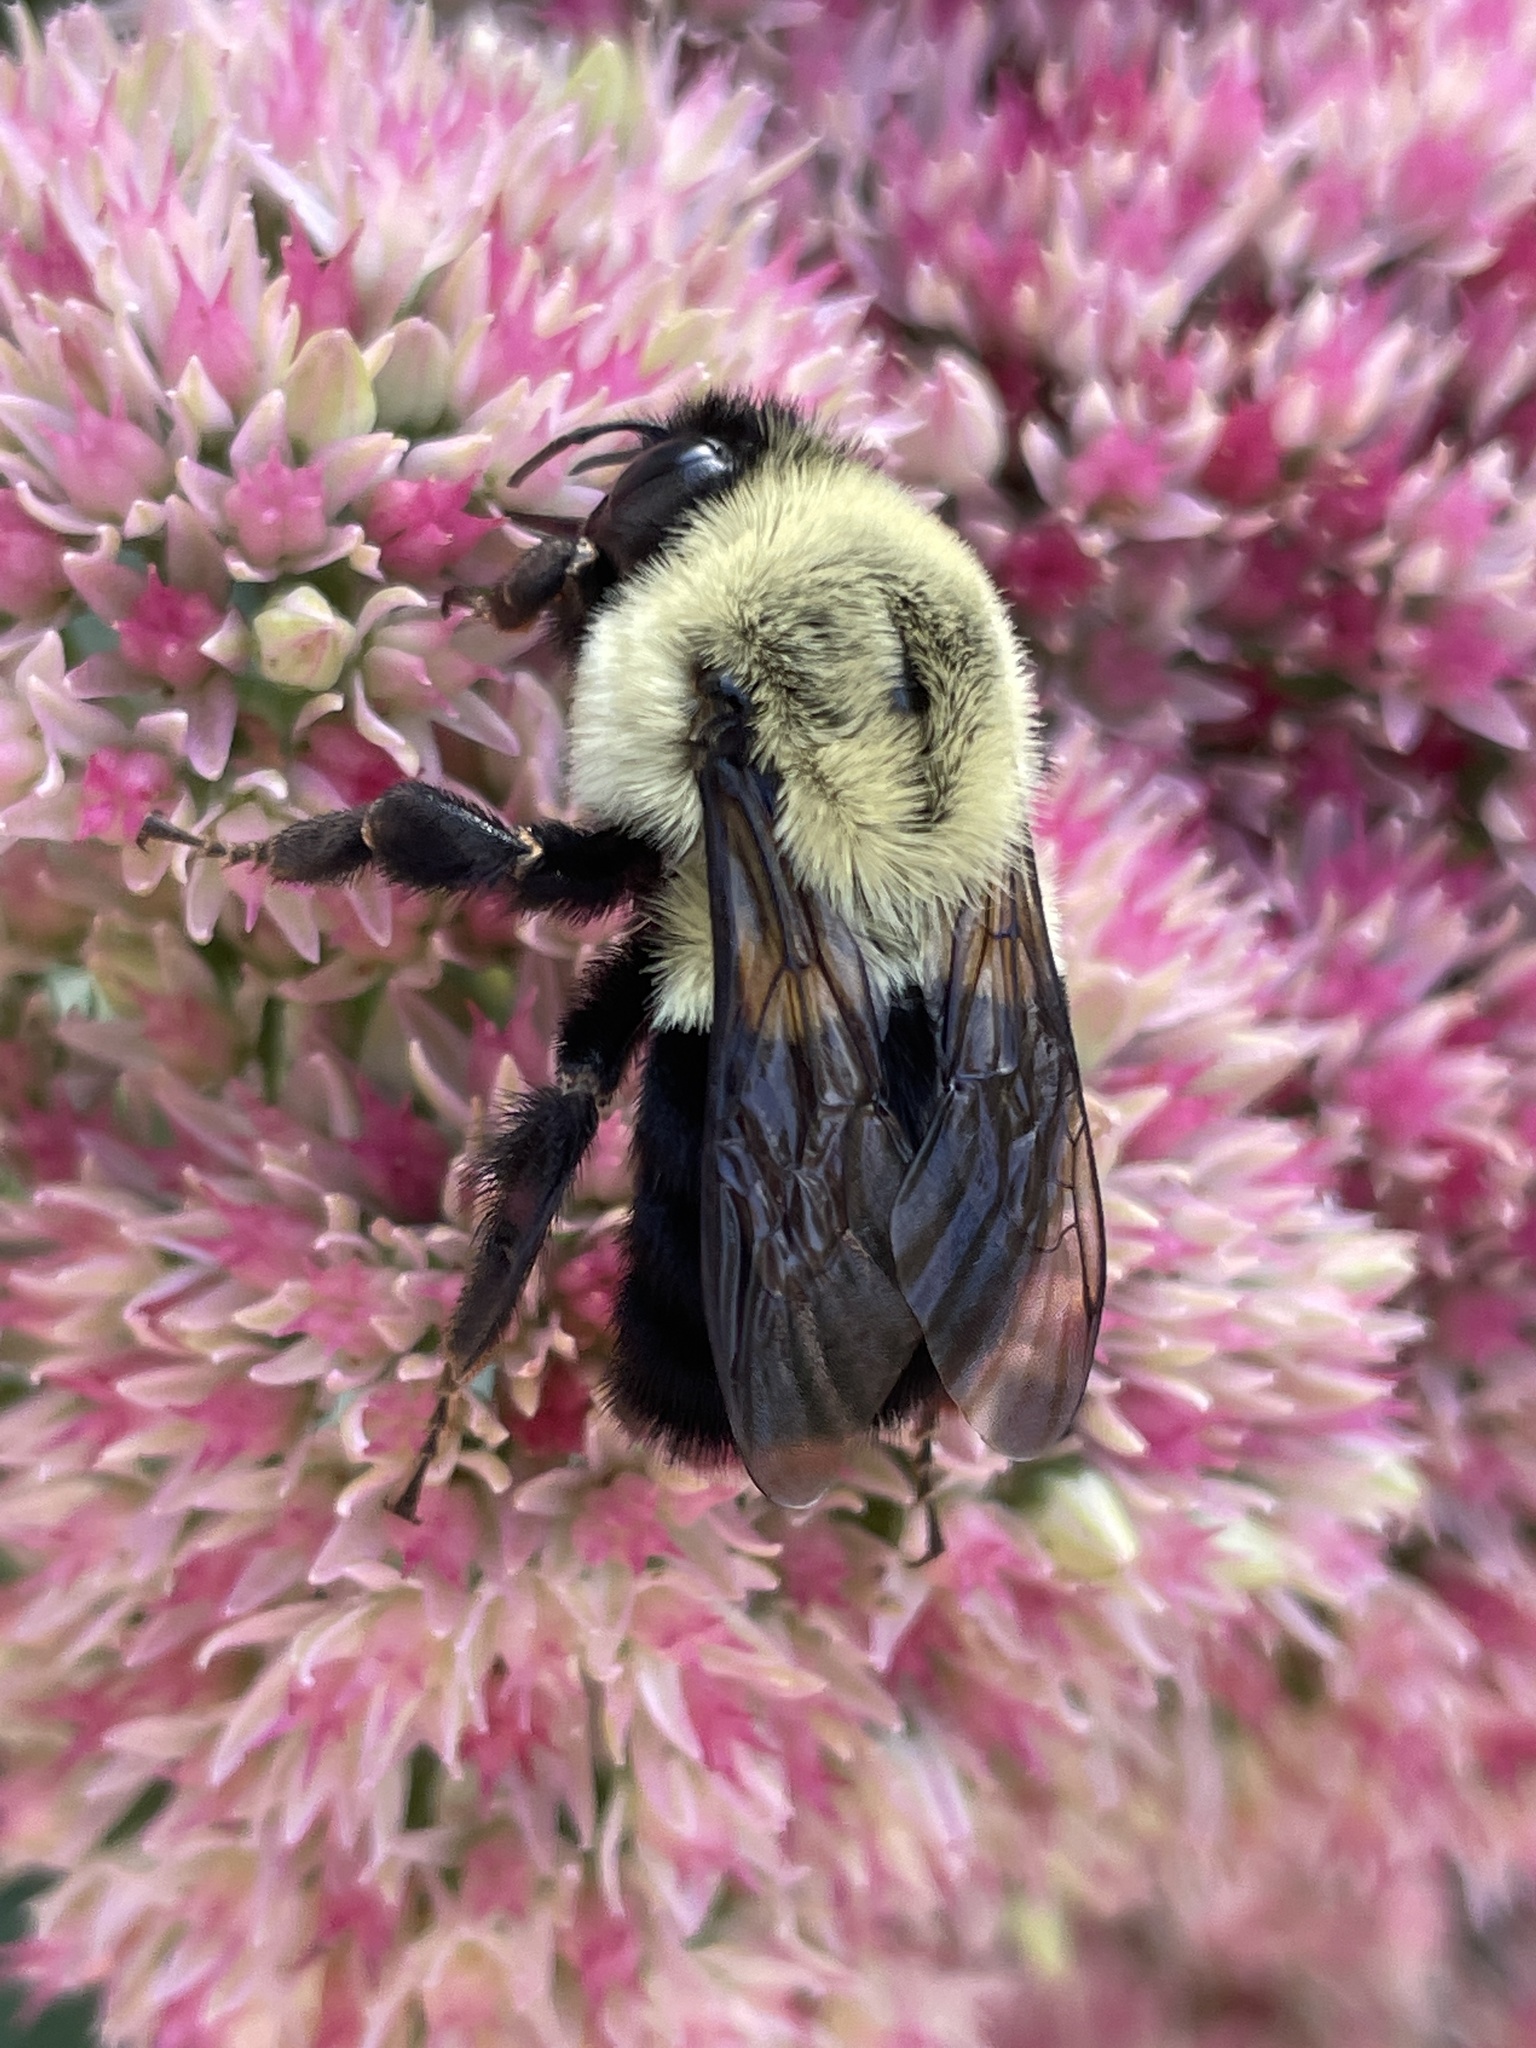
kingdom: Animalia
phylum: Arthropoda
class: Insecta
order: Hymenoptera
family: Apidae
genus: Bombus
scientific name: Bombus impatiens
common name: Common eastern bumble bee
